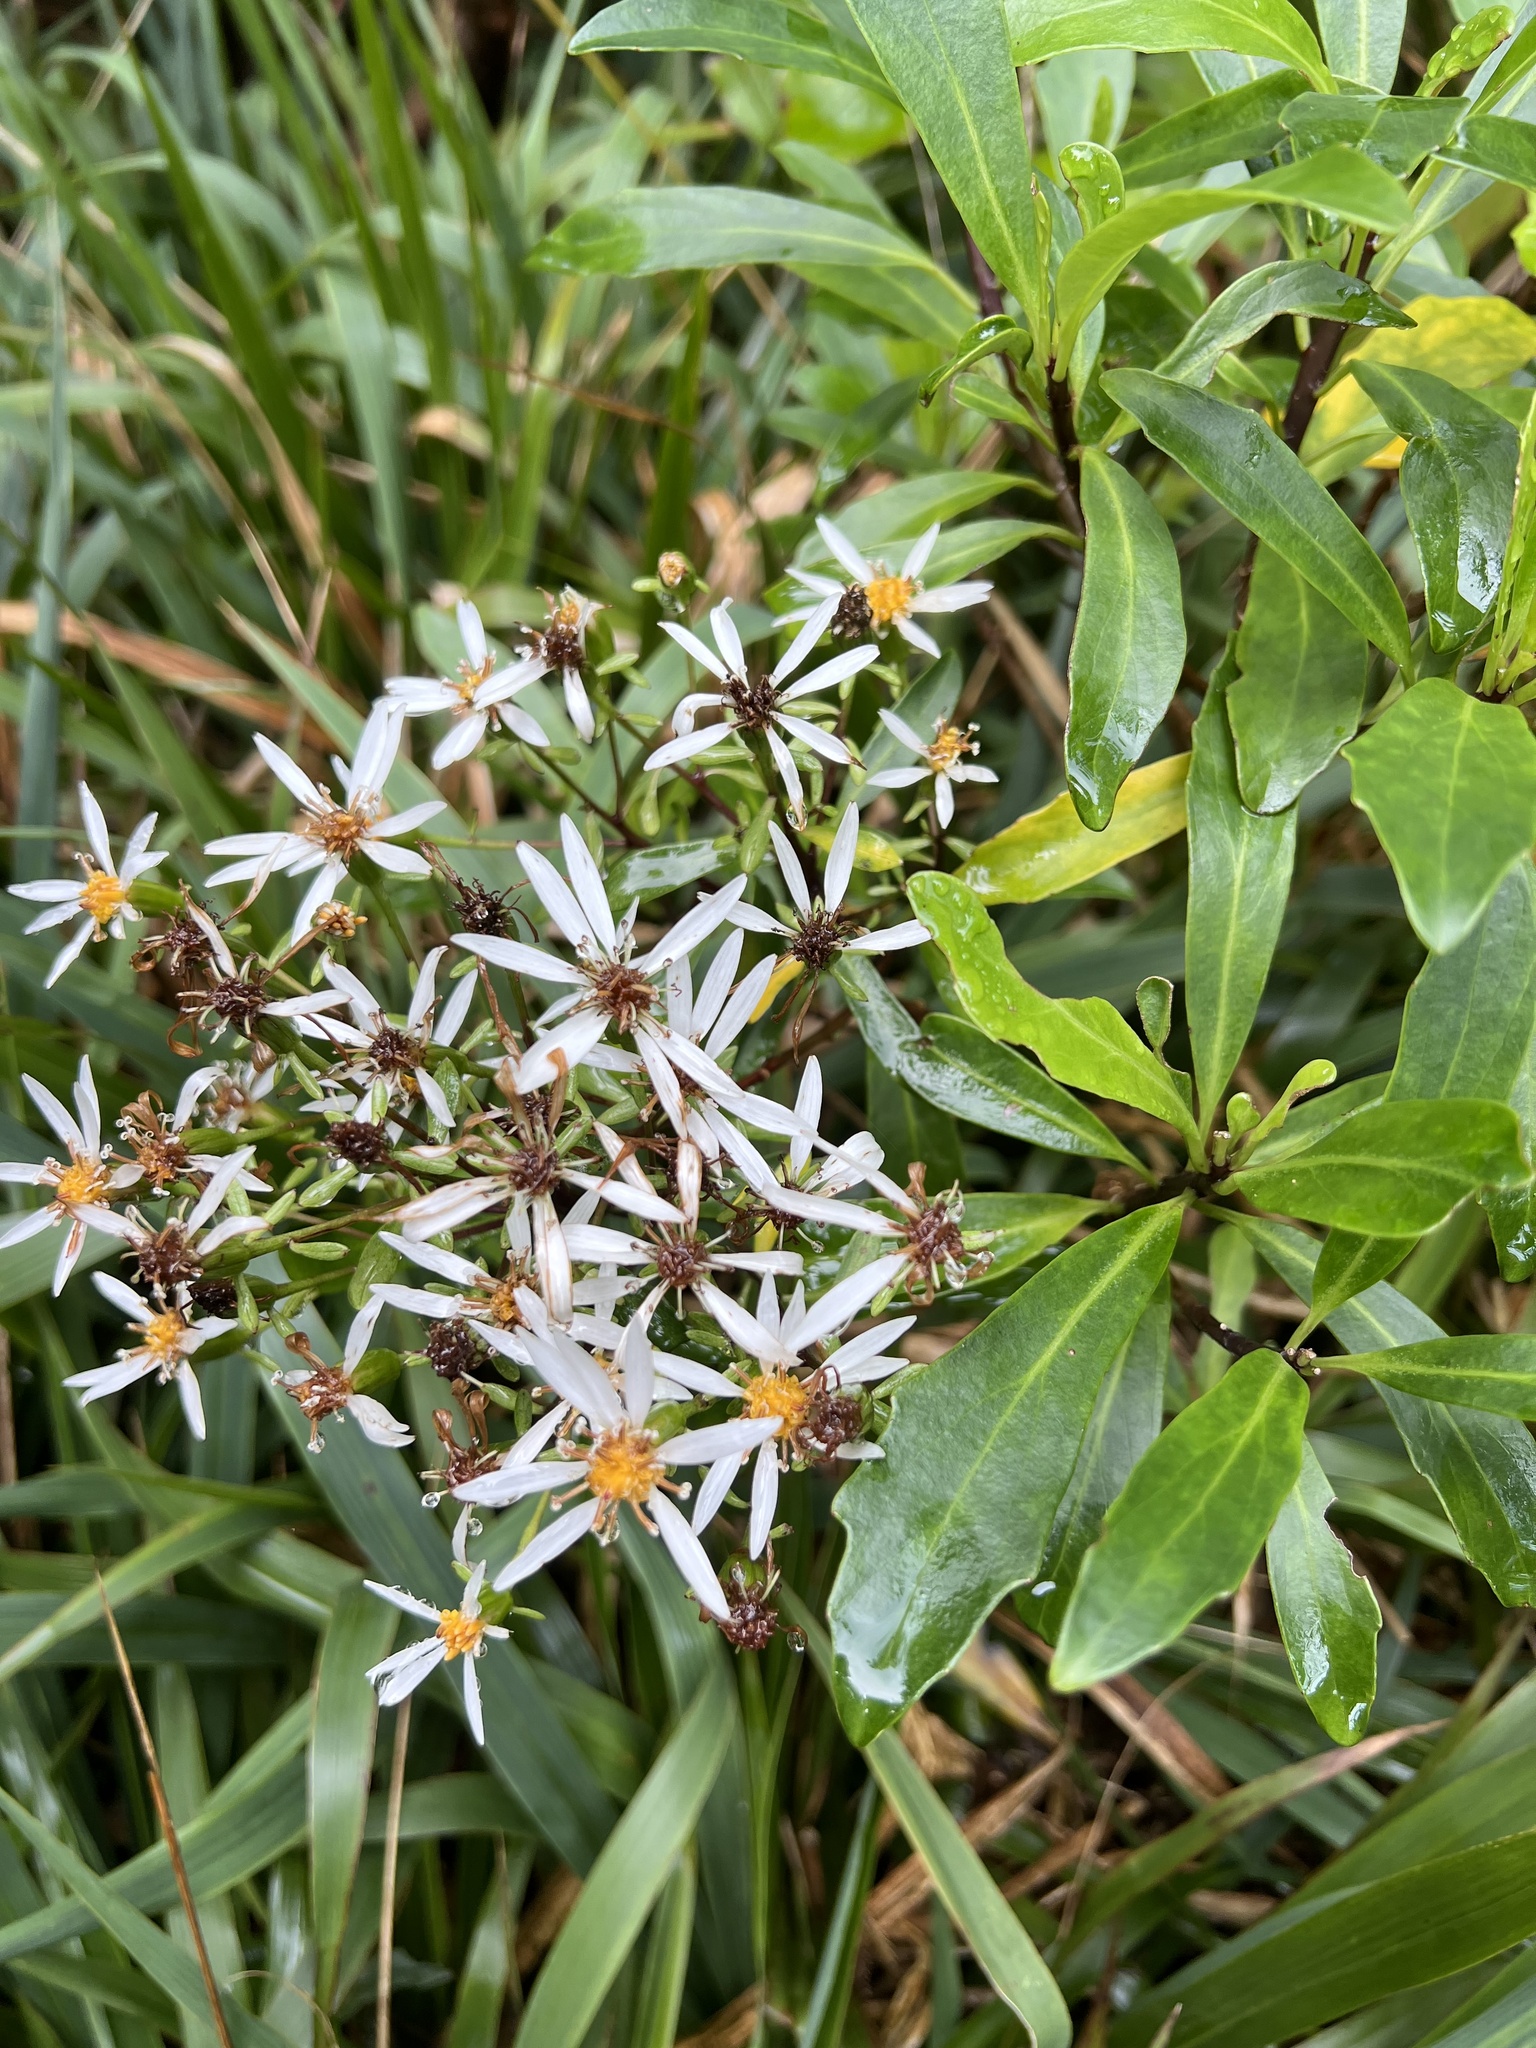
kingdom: Plantae
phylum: Tracheophyta
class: Magnoliopsida
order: Asterales
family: Asteraceae
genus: Brachyglottis
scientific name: Brachyglottis kirkii
